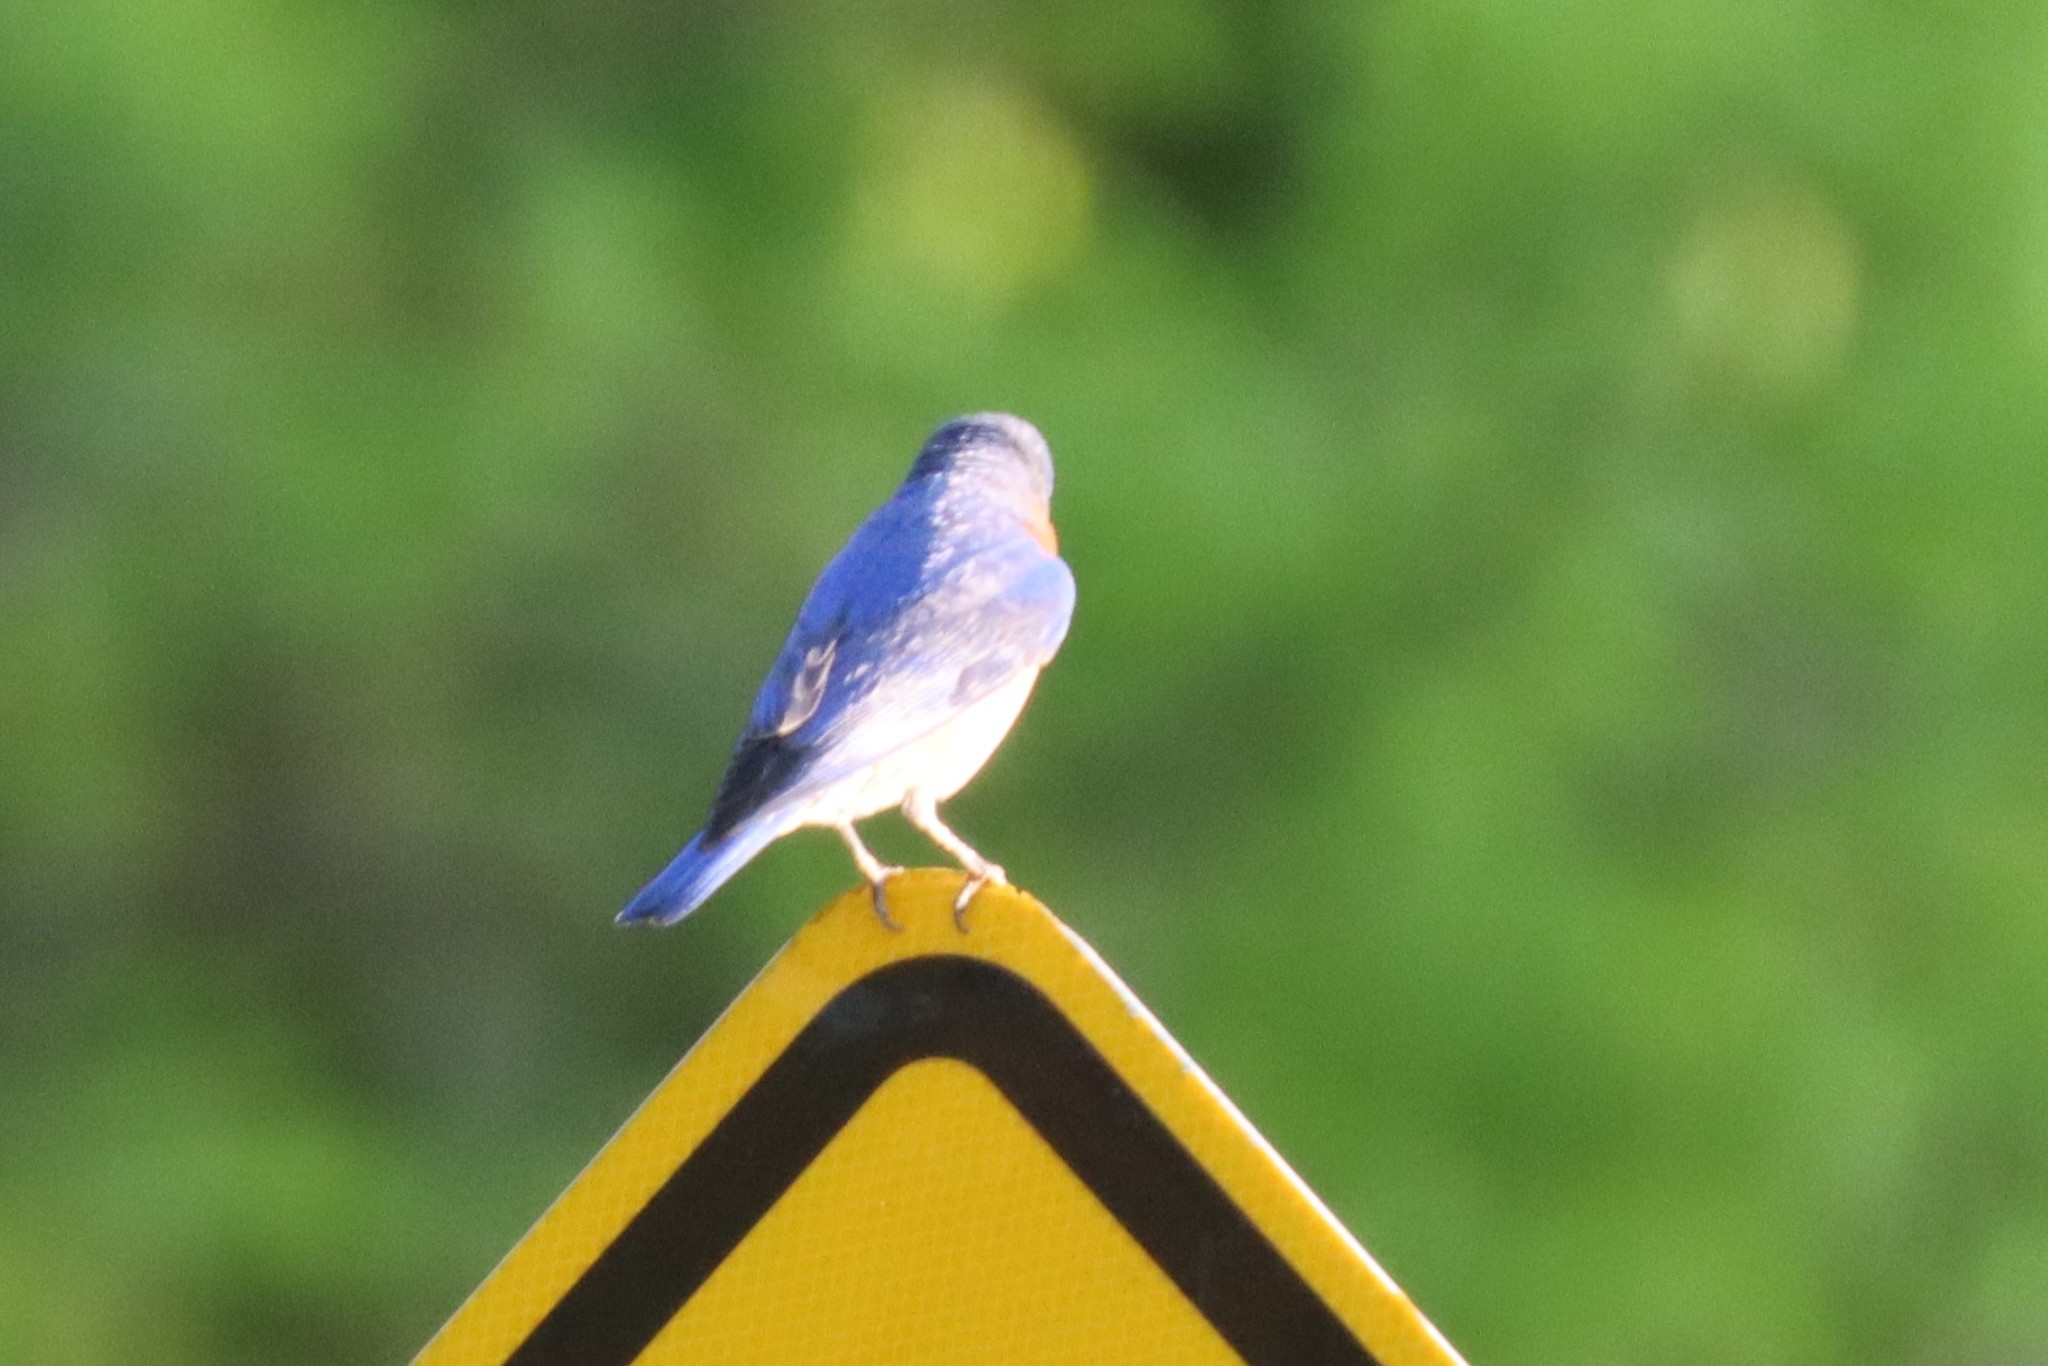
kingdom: Animalia
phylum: Chordata
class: Aves
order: Passeriformes
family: Turdidae
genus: Sialia
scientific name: Sialia sialis
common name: Eastern bluebird
